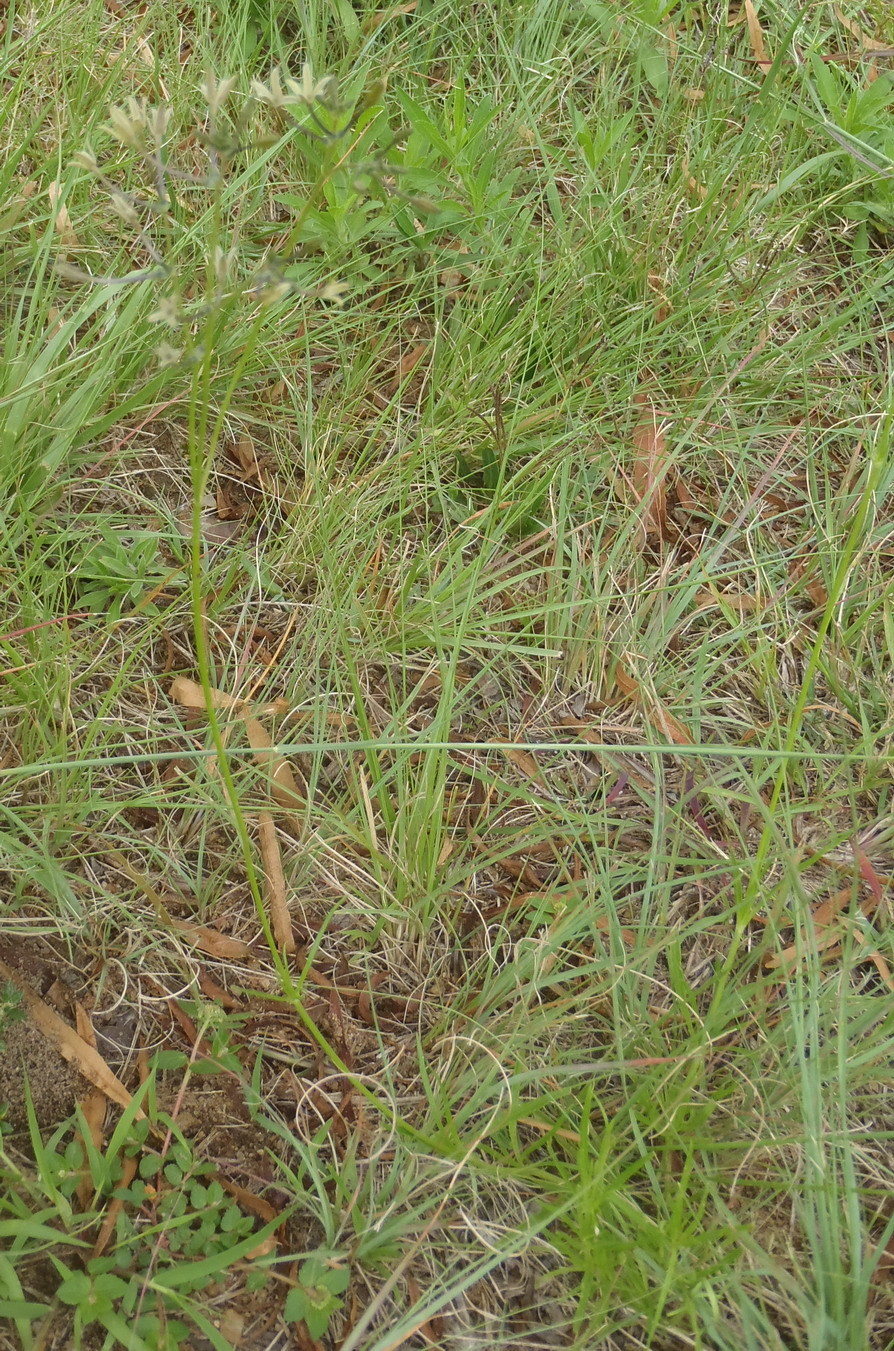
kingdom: Plantae
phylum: Tracheophyta
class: Magnoliopsida
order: Gentianales
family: Rubiaceae
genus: Kohautia
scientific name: Kohautia amatymbica
